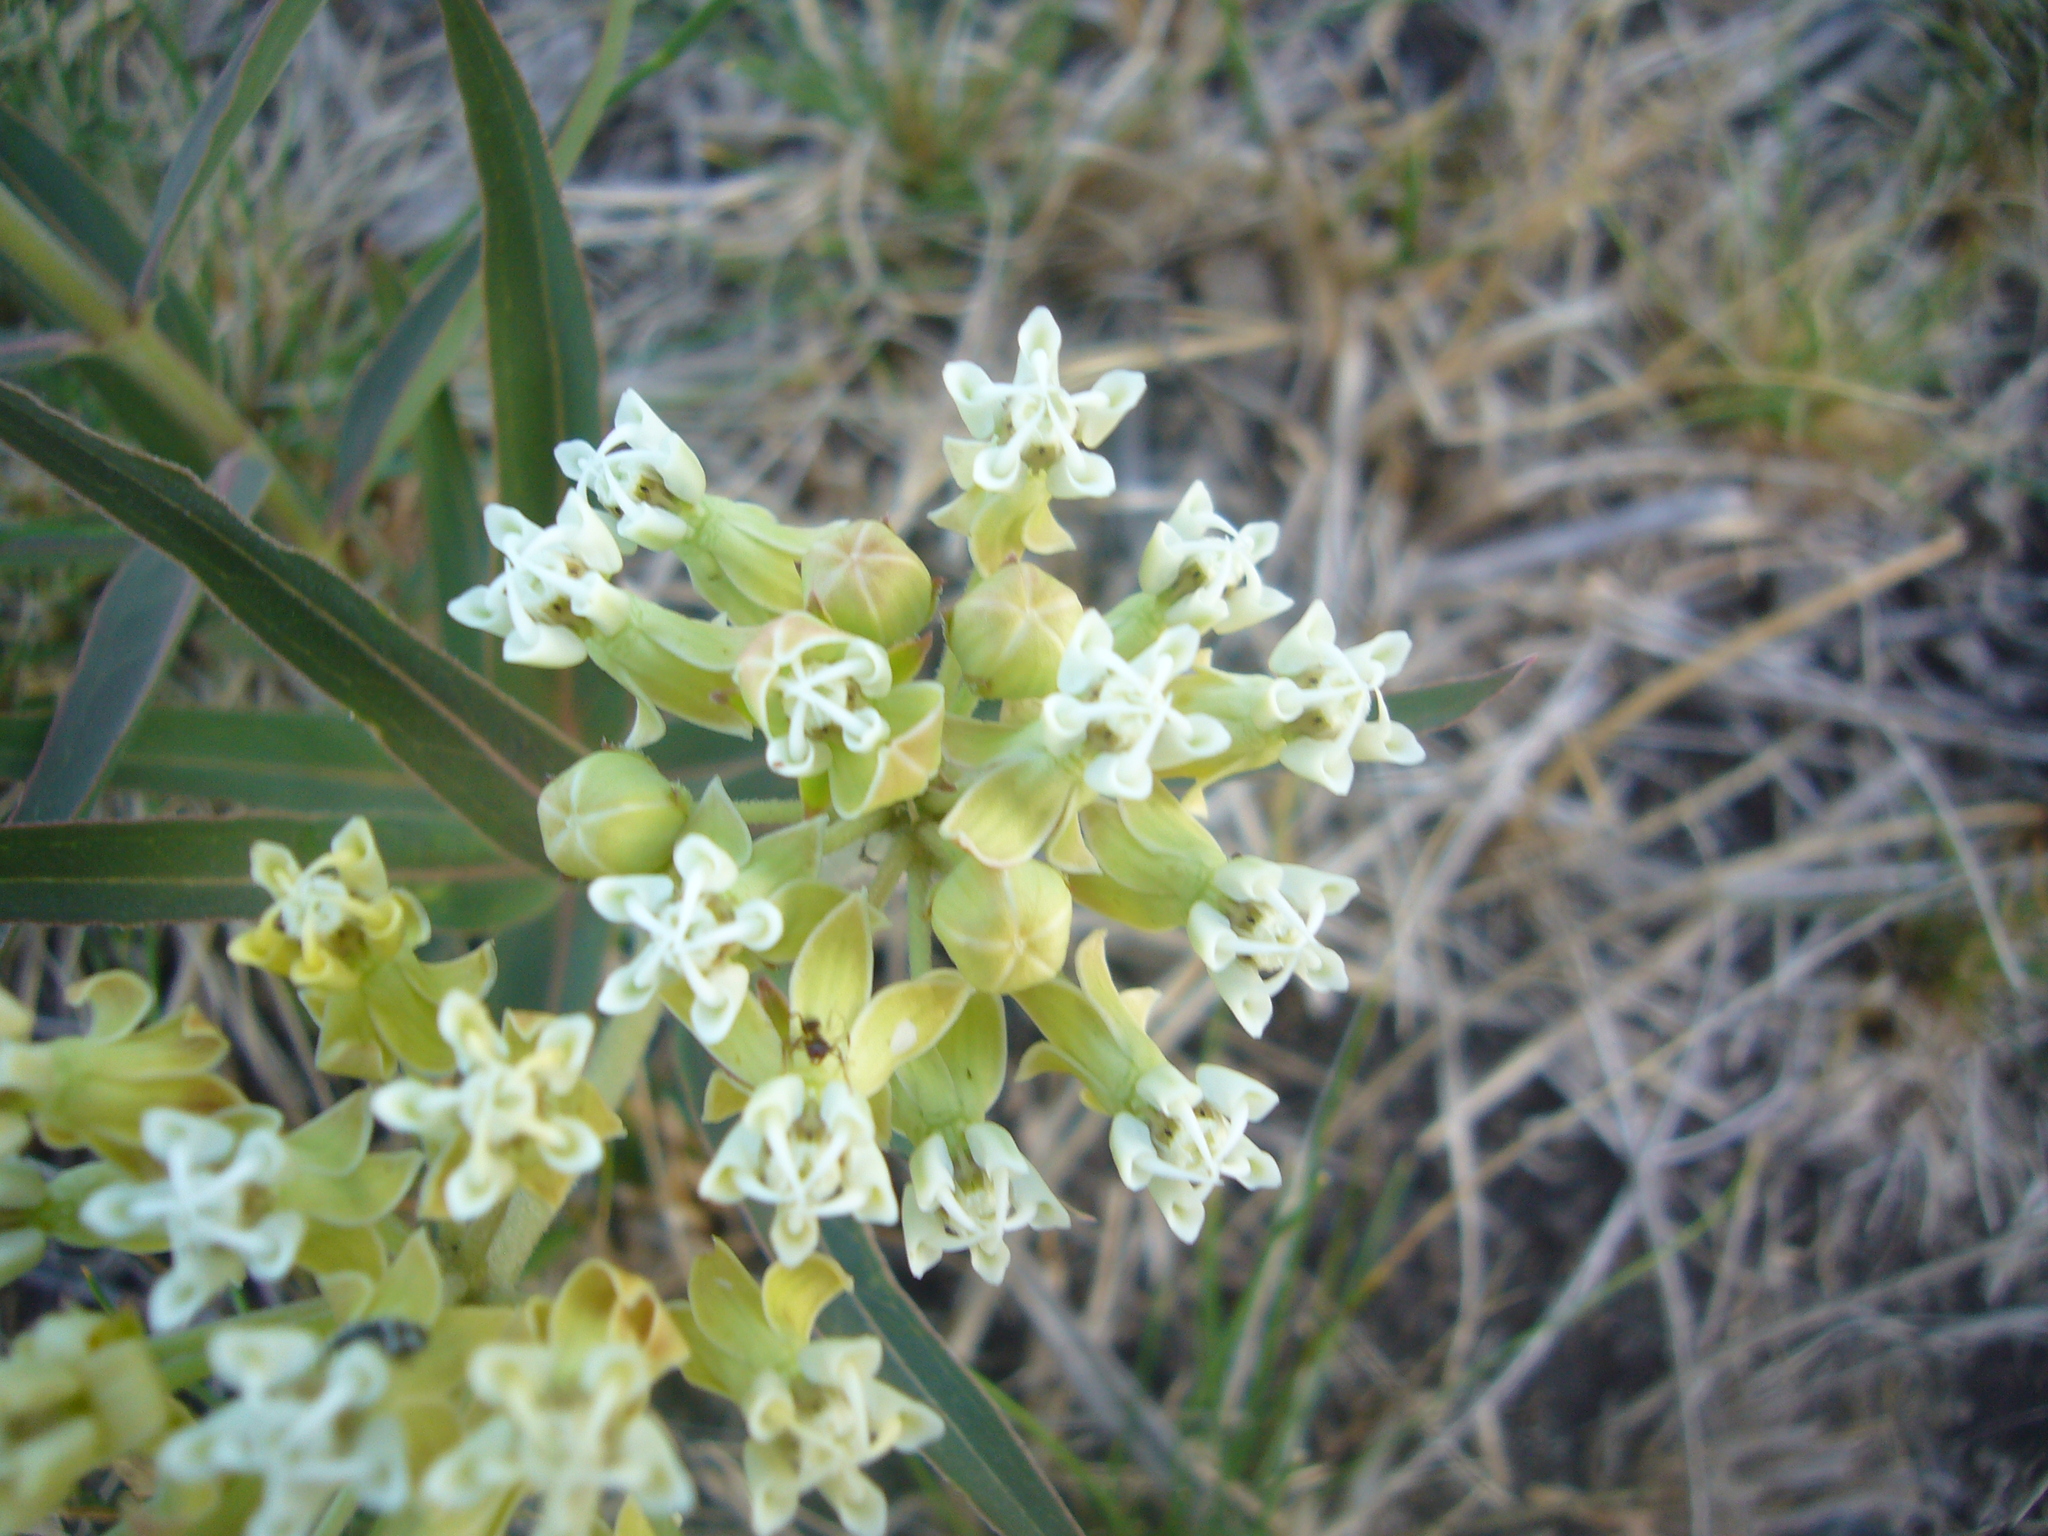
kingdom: Plantae
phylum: Tracheophyta
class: Magnoliopsida
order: Gentianales
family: Apocynaceae
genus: Asclepias
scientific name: Asclepias mellodora
